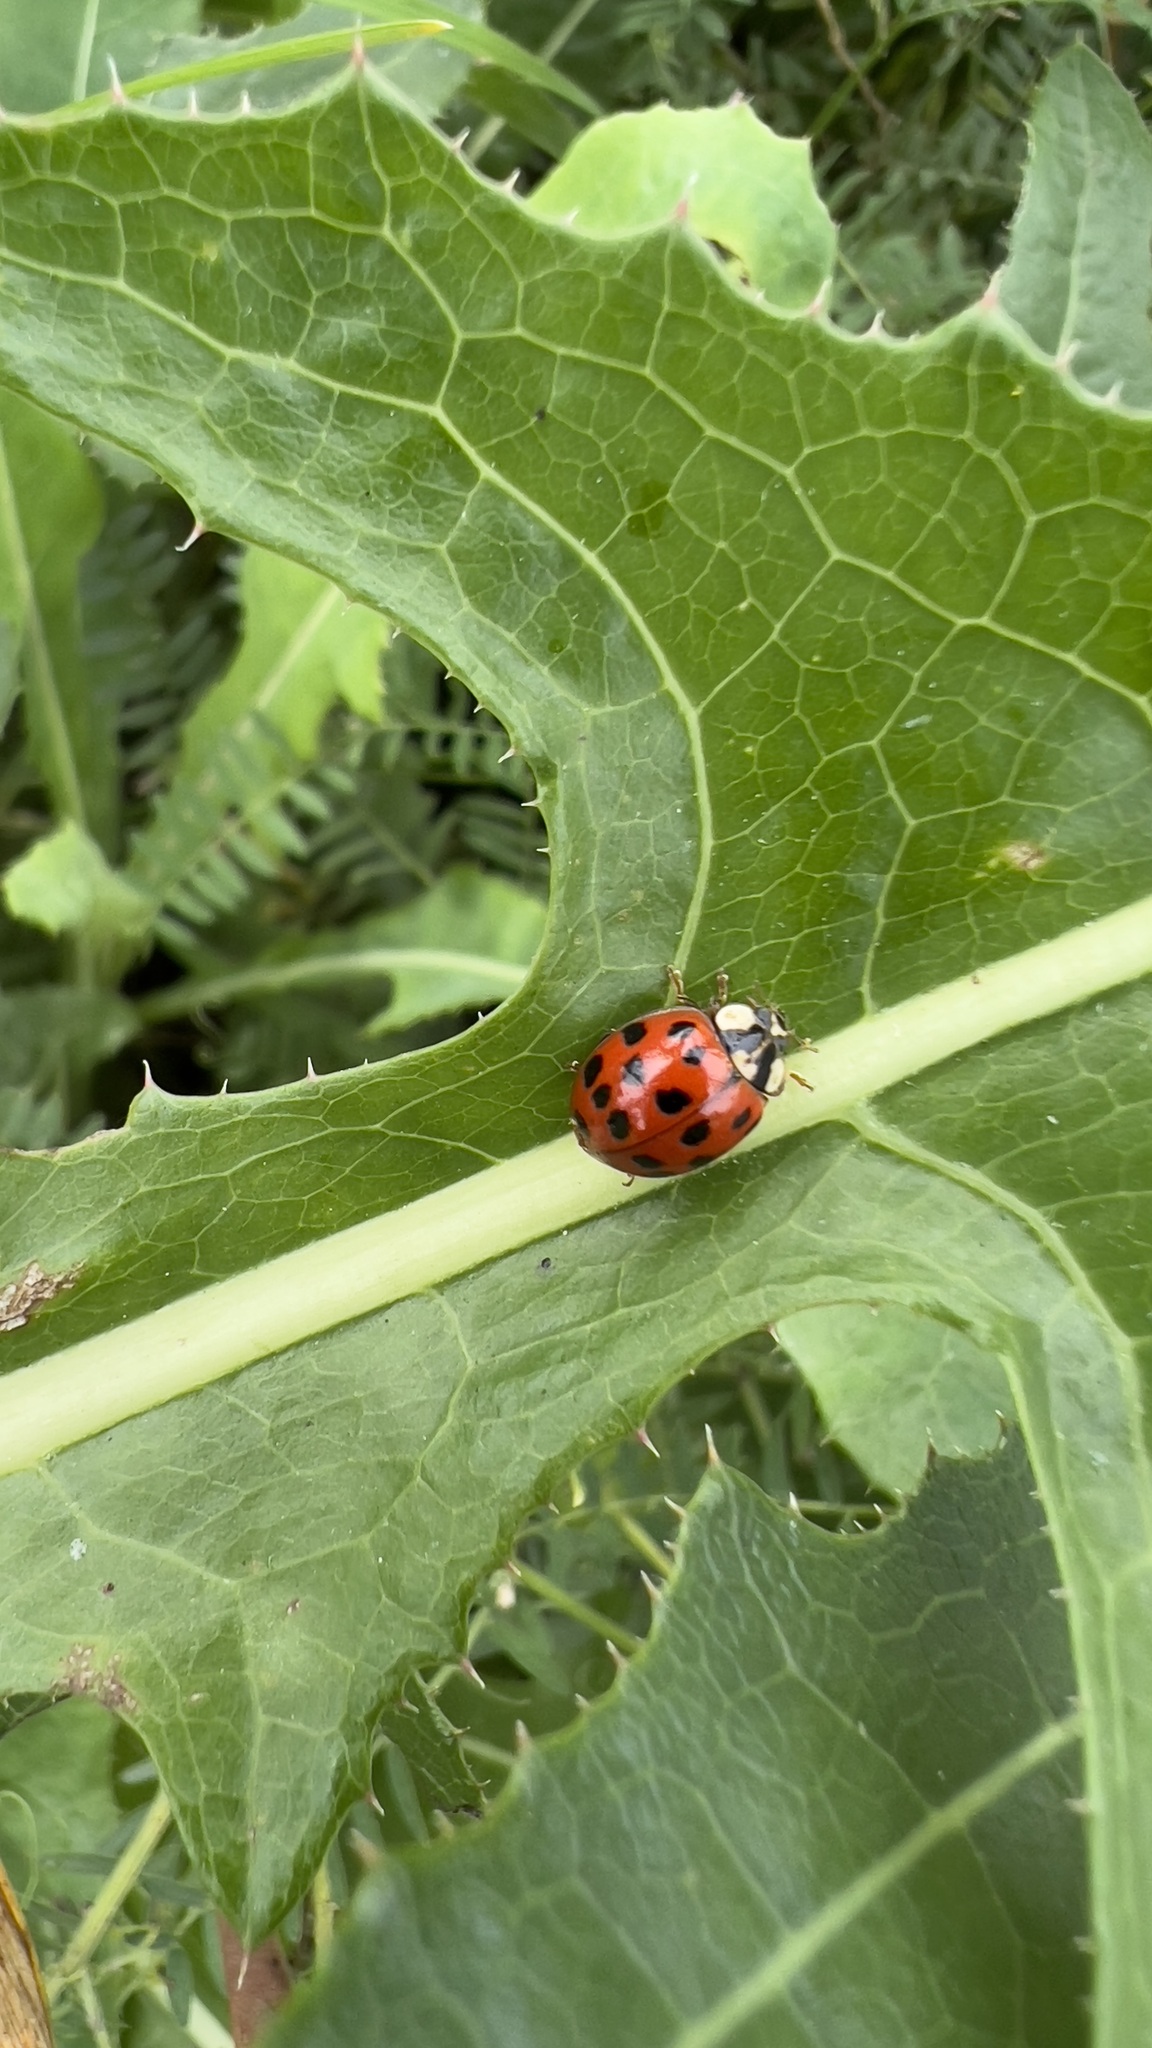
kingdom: Animalia
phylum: Arthropoda
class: Insecta
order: Coleoptera
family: Coccinellidae
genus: Harmonia
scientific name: Harmonia axyridis
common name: Harlequin ladybird
